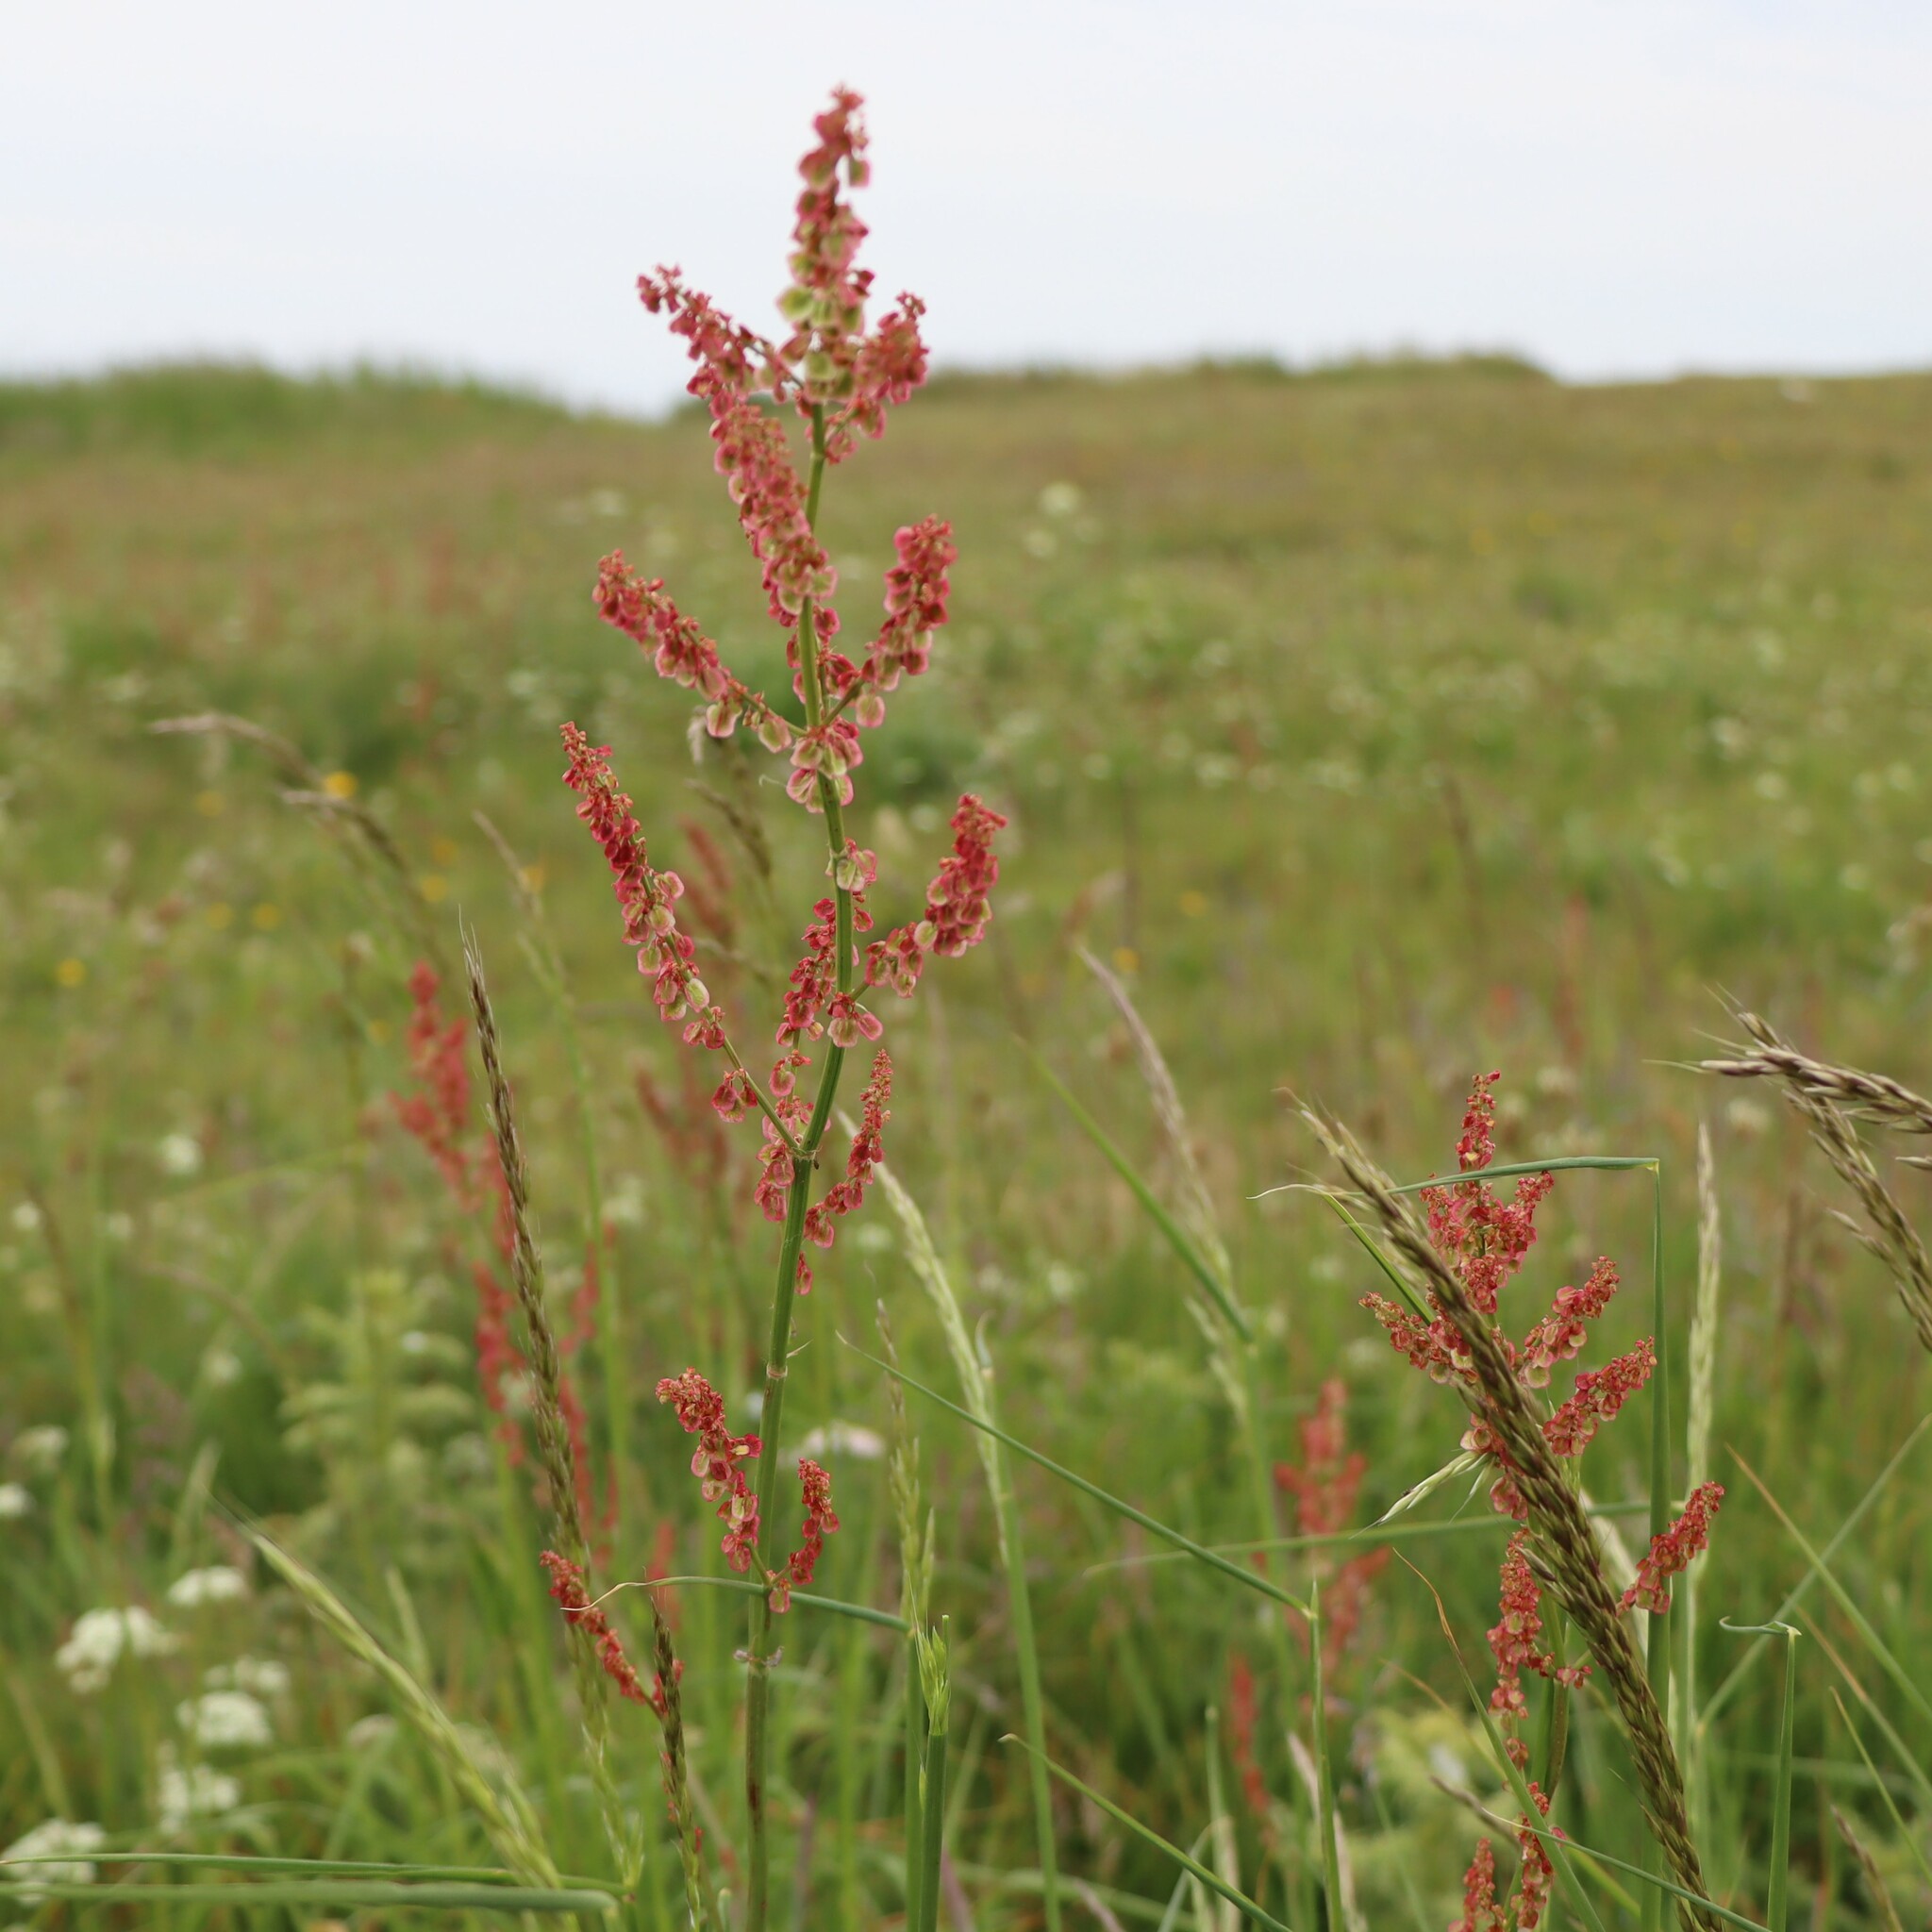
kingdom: Plantae
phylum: Tracheophyta
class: Magnoliopsida
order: Caryophyllales
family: Polygonaceae
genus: Rumex
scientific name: Rumex acetosa
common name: Garden sorrel
